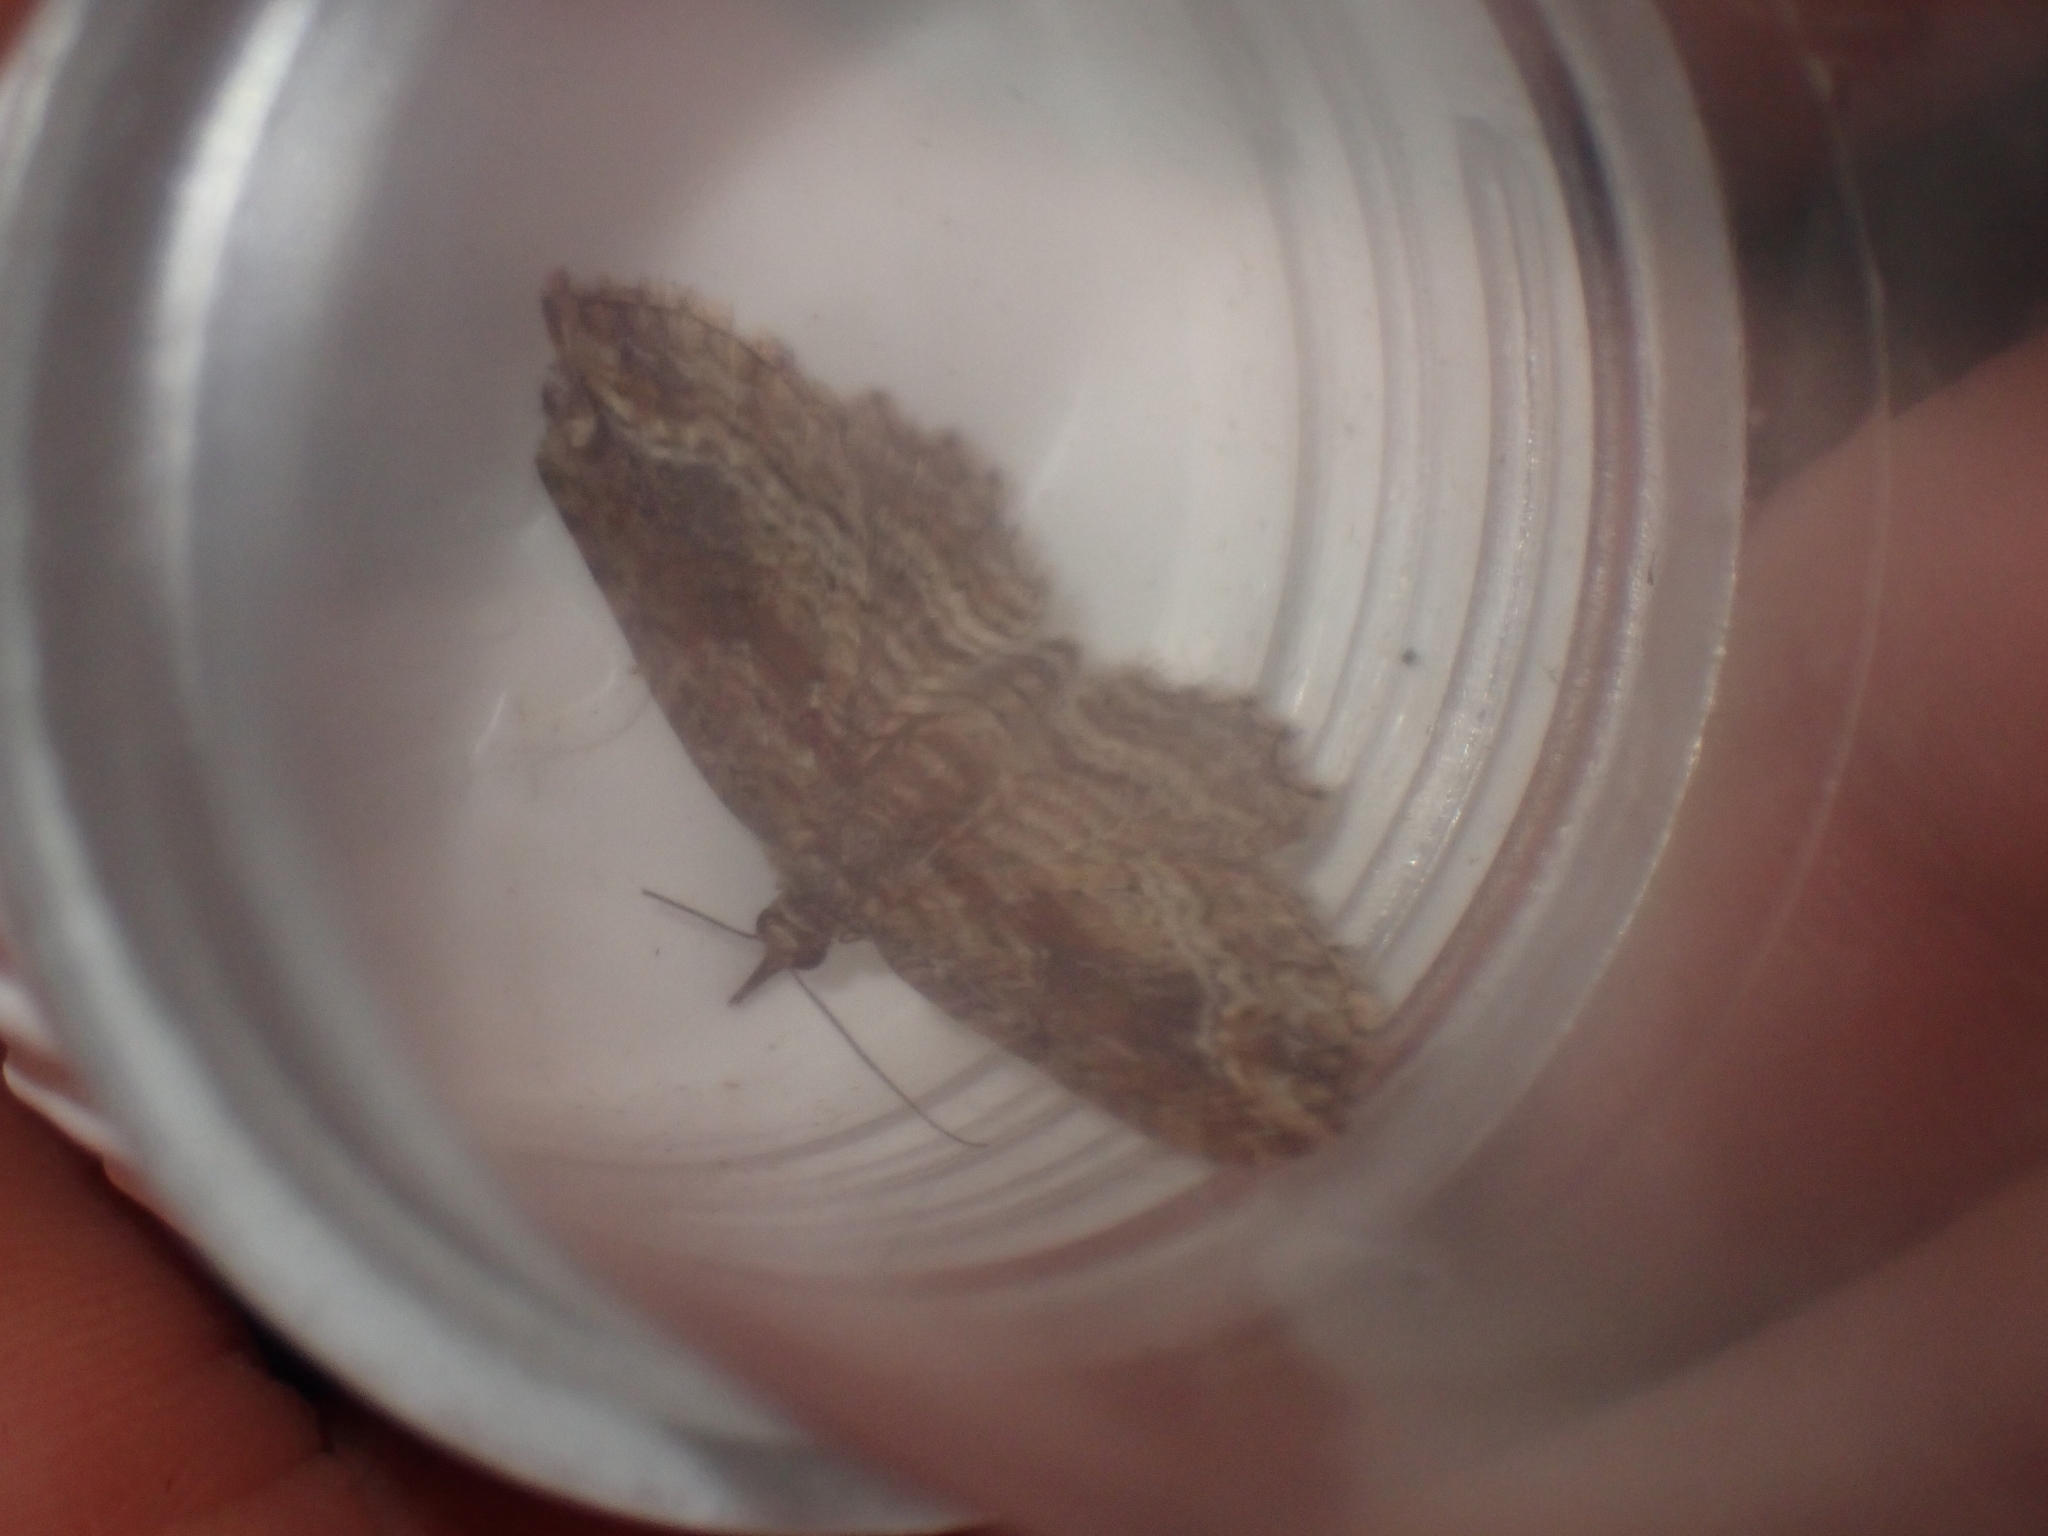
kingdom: Animalia
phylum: Arthropoda
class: Insecta
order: Lepidoptera
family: Geometridae
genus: Chloroclystis
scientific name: Chloroclystis filata
